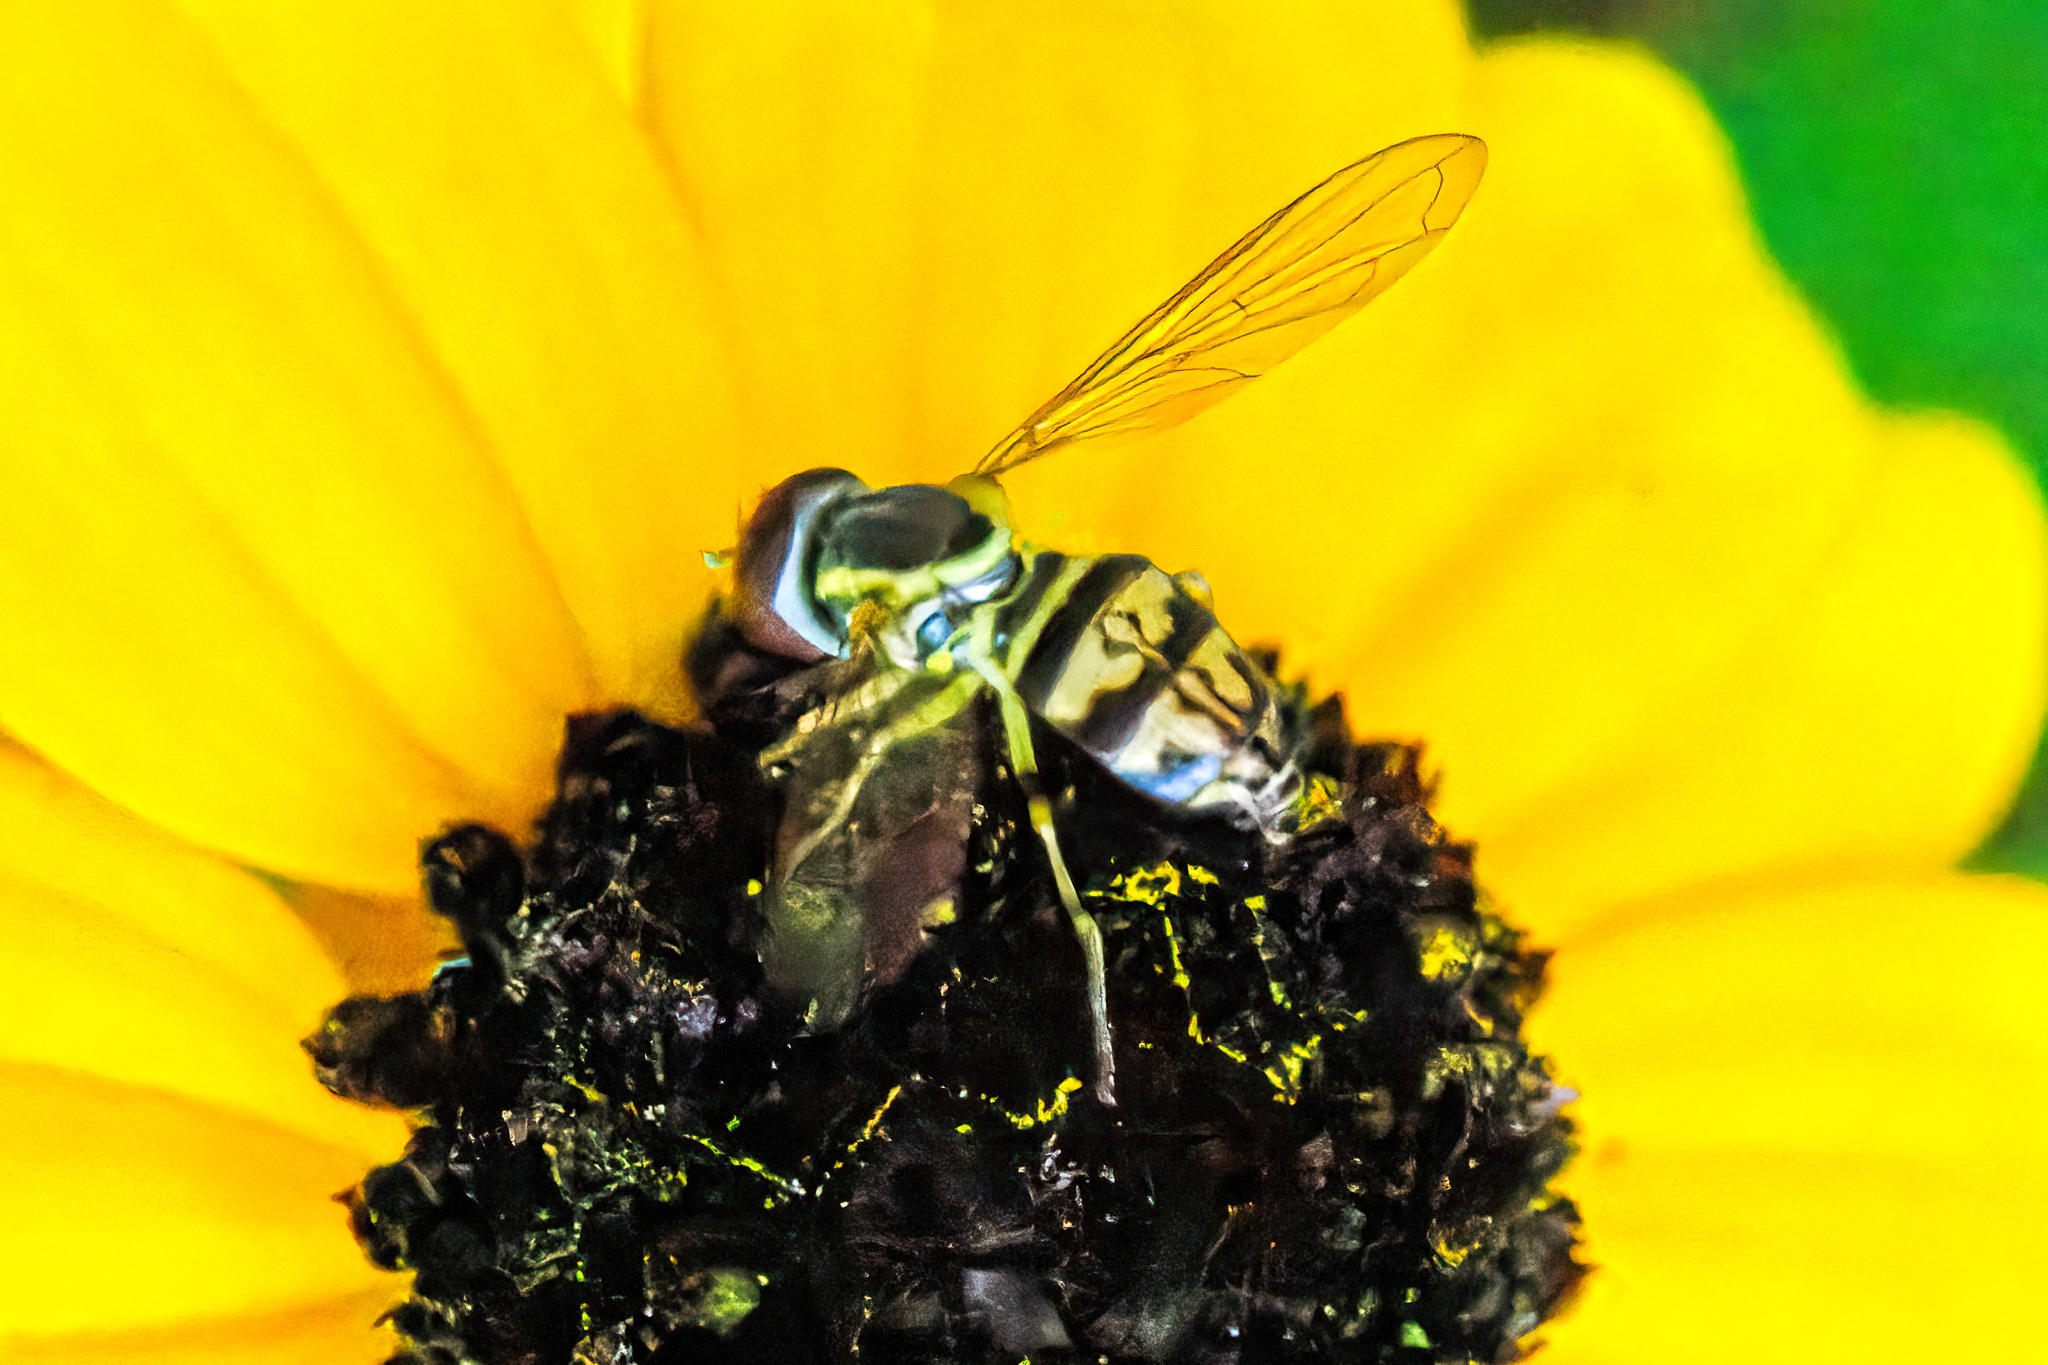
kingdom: Animalia
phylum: Arthropoda
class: Insecta
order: Diptera
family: Syrphidae
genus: Toxomerus
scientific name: Toxomerus geminatus
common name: Eastern calligrapher
